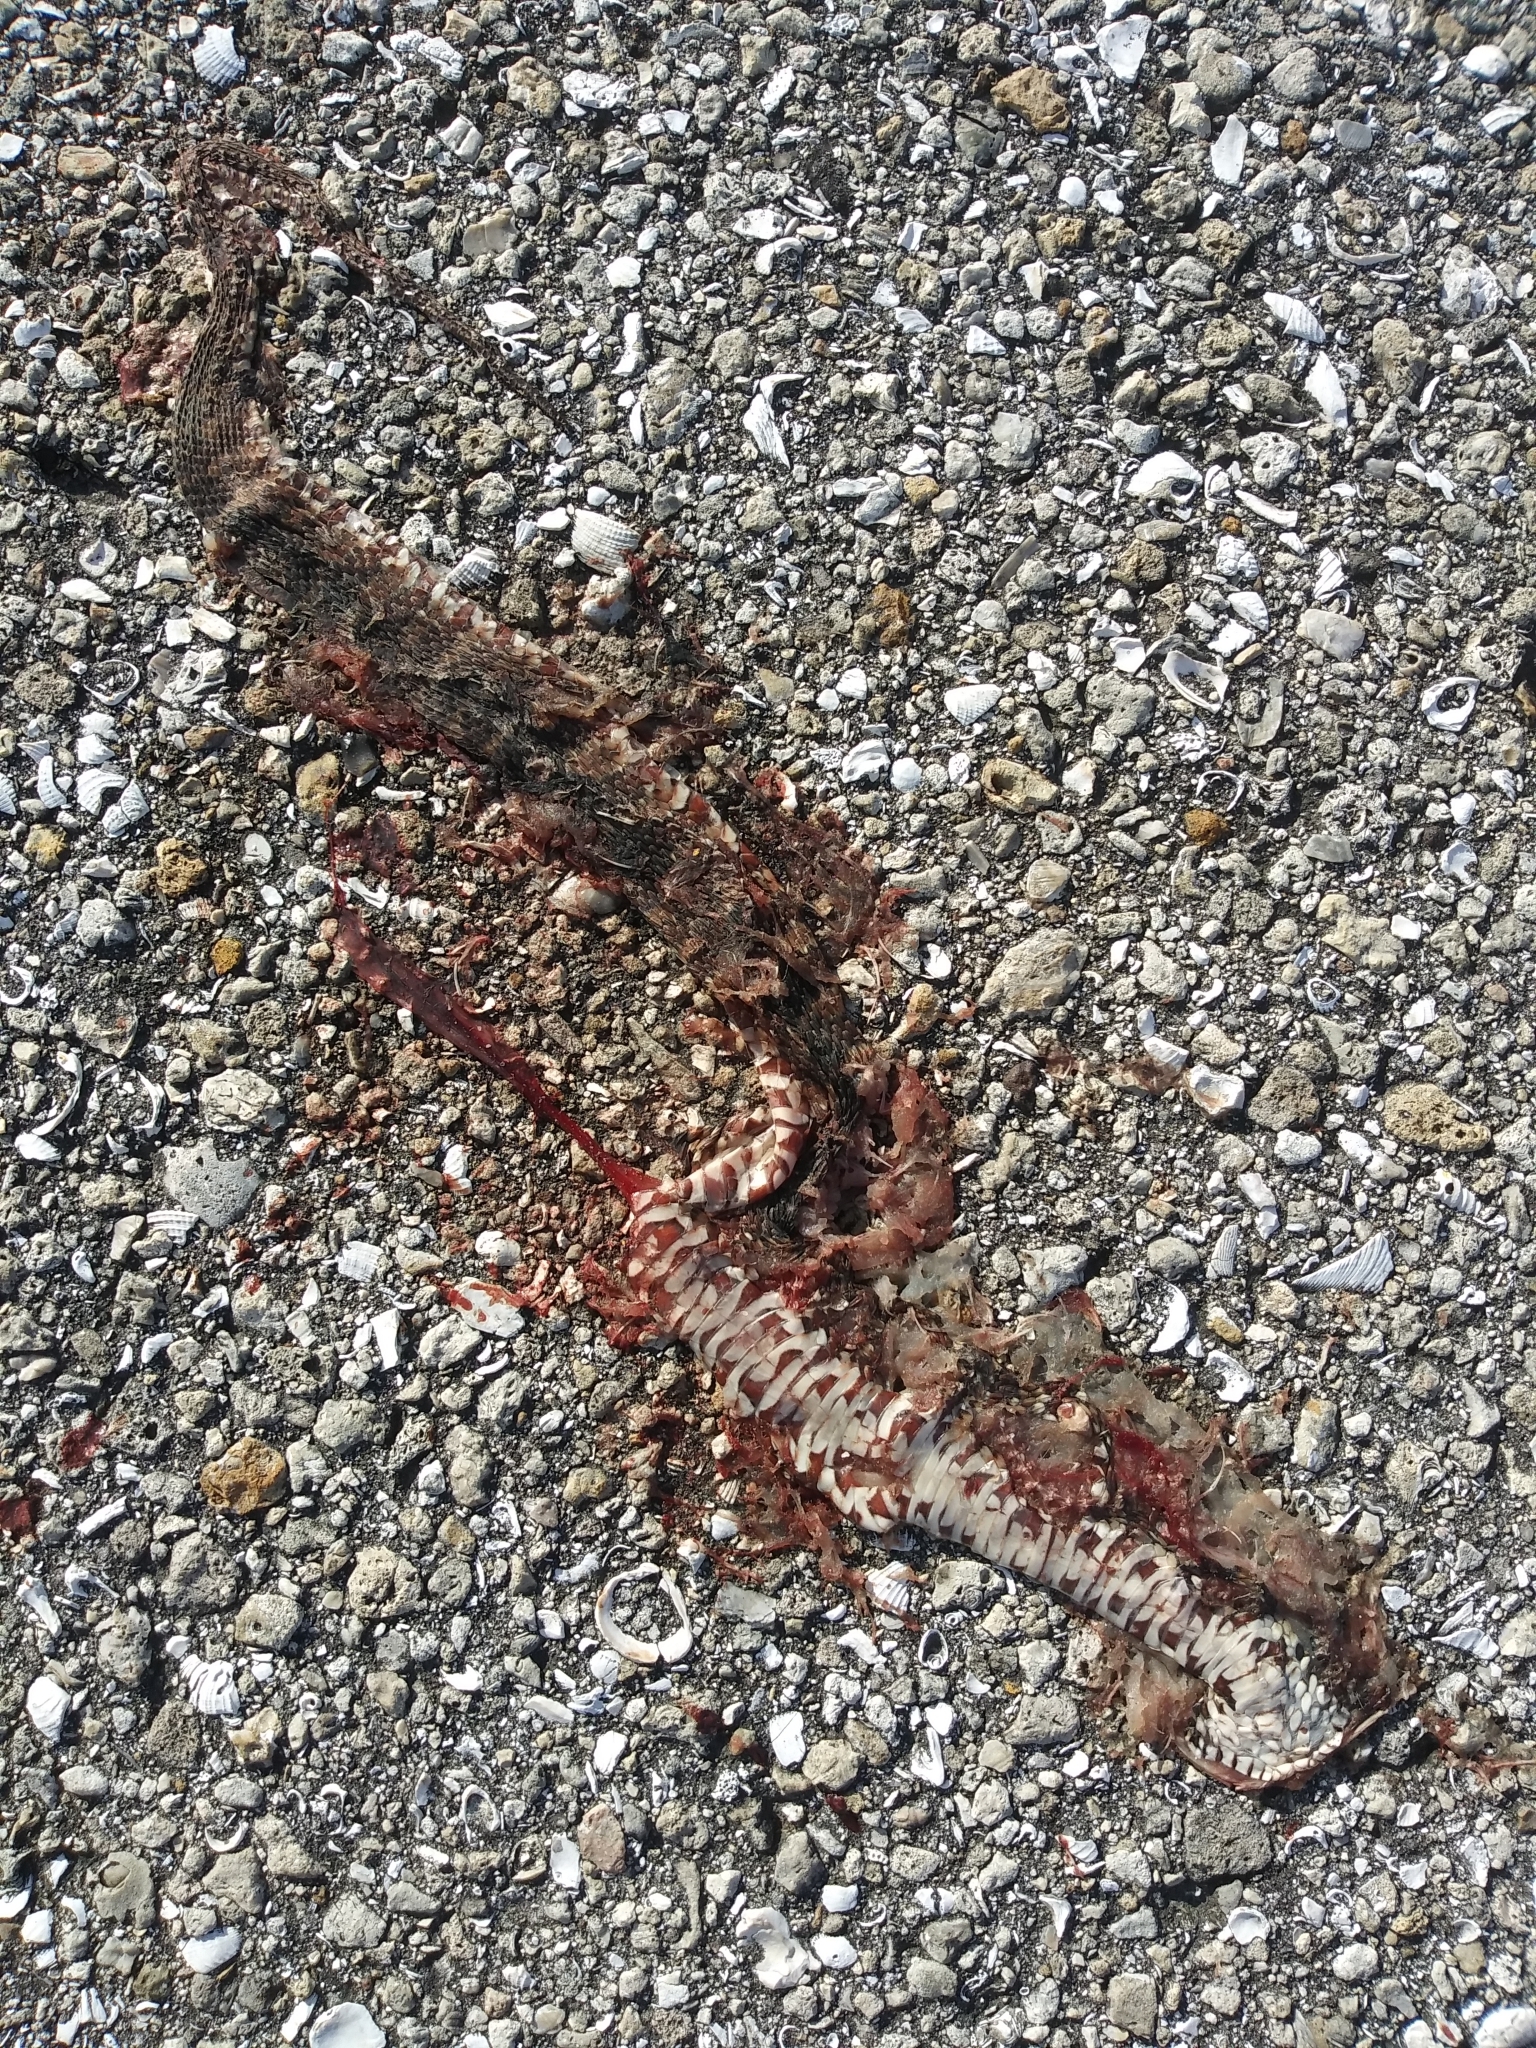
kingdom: Animalia
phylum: Chordata
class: Squamata
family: Colubridae
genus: Nerodia
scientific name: Nerodia fasciata
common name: Southern water snake
